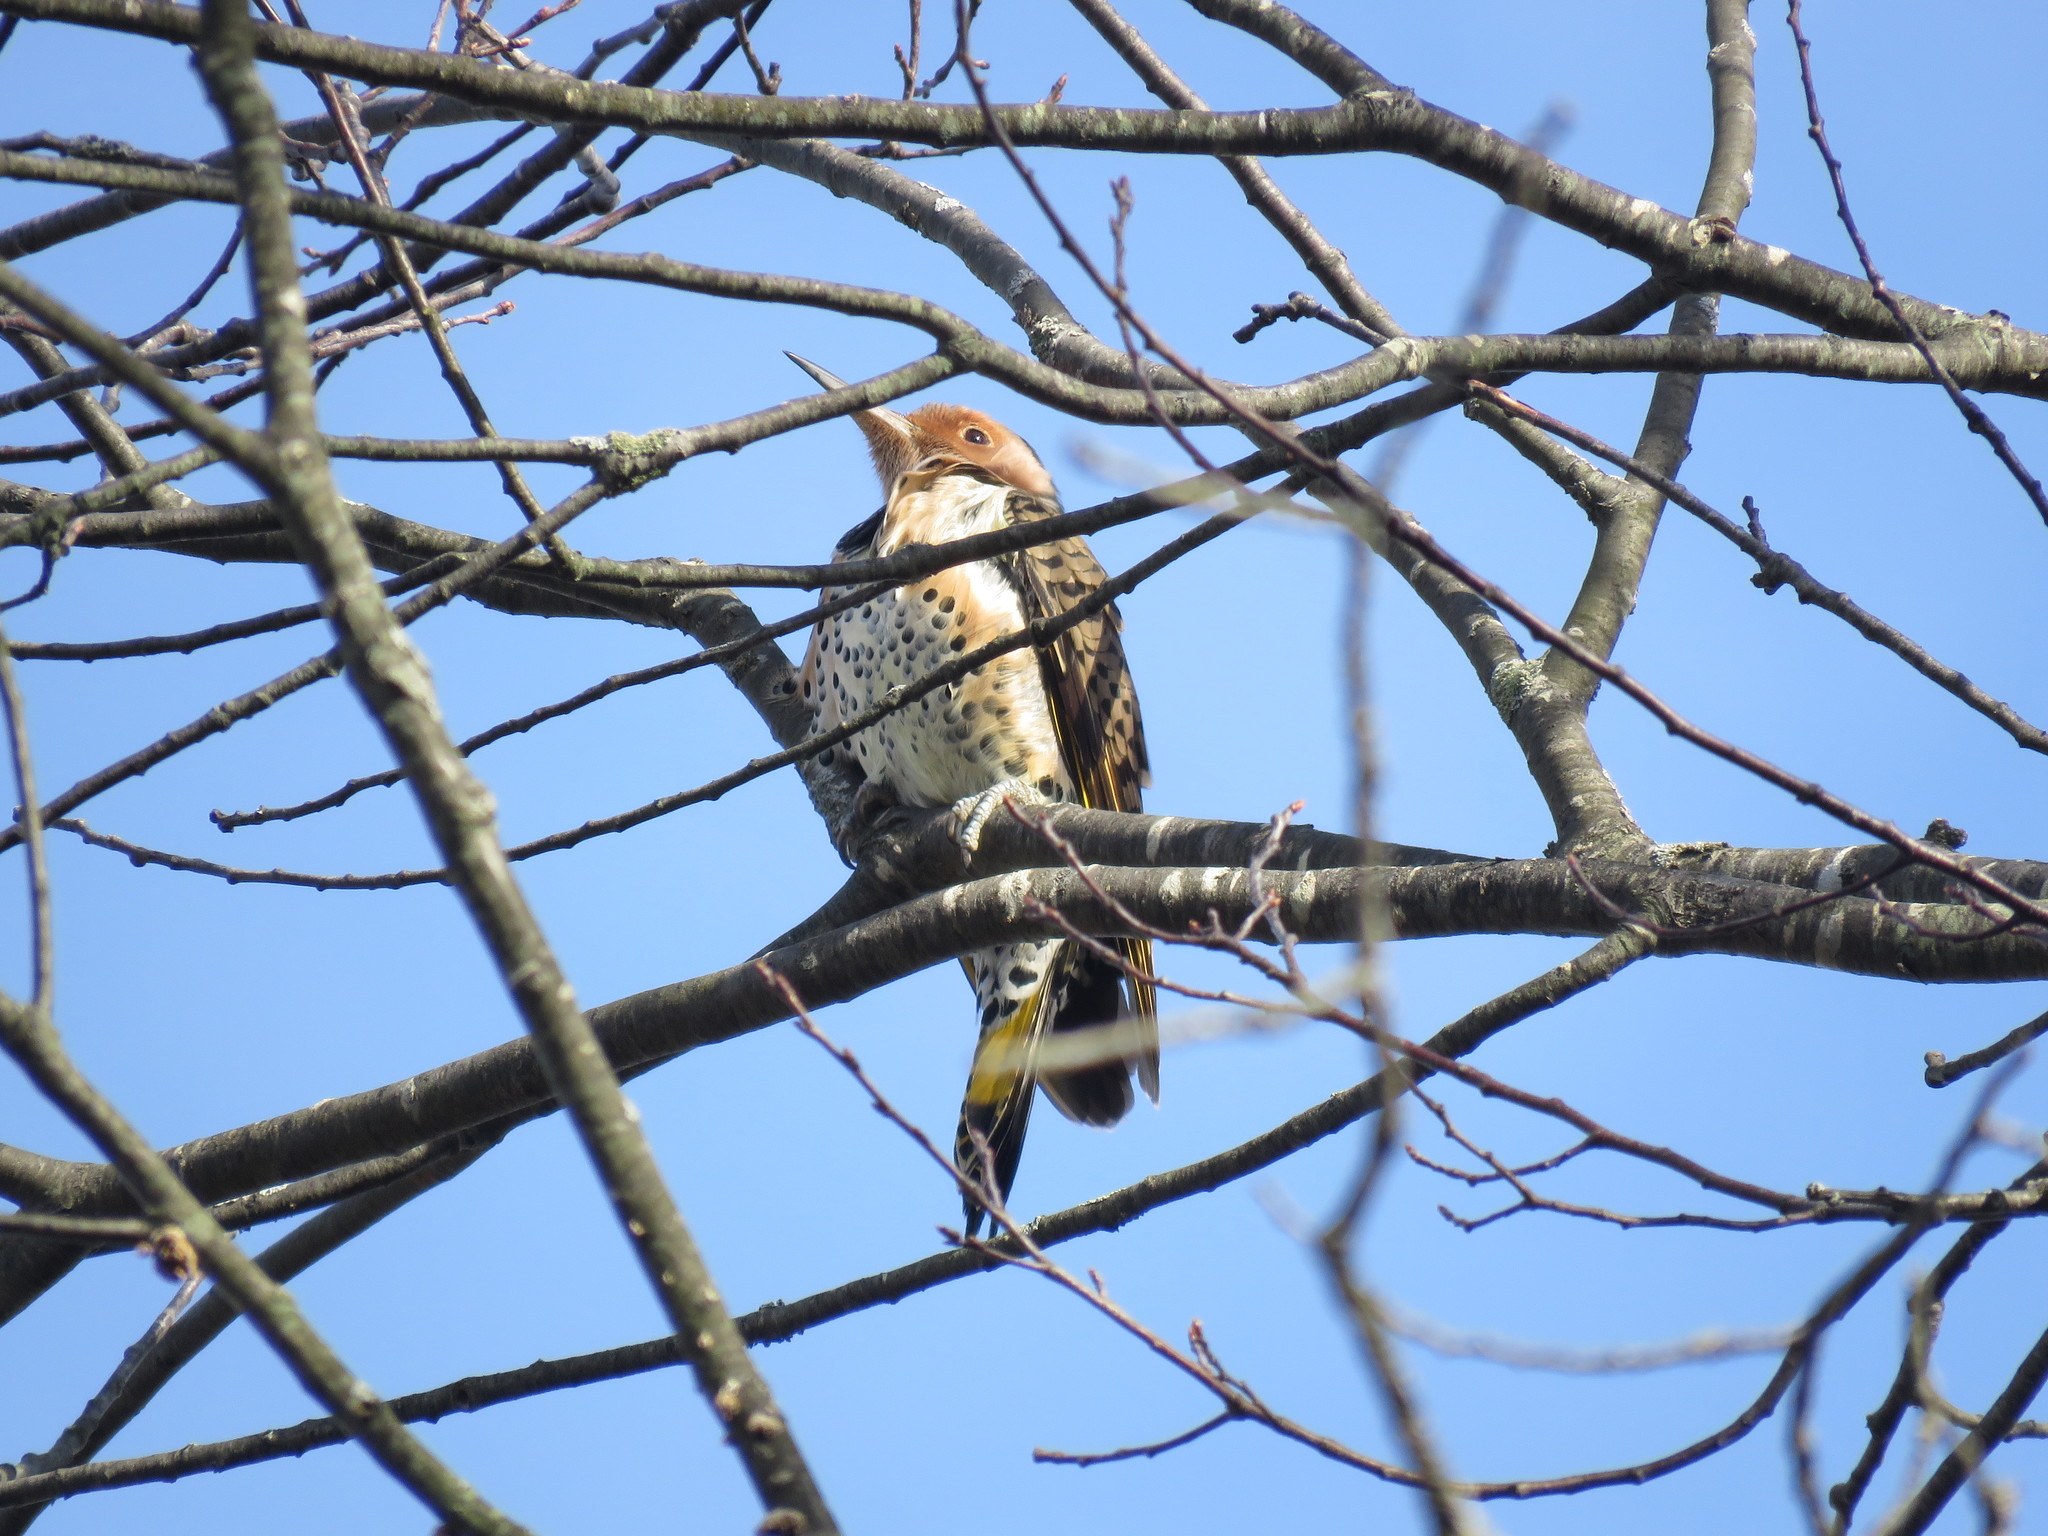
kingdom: Animalia
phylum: Chordata
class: Aves
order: Piciformes
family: Picidae
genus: Colaptes
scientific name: Colaptes auratus
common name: Northern flicker
